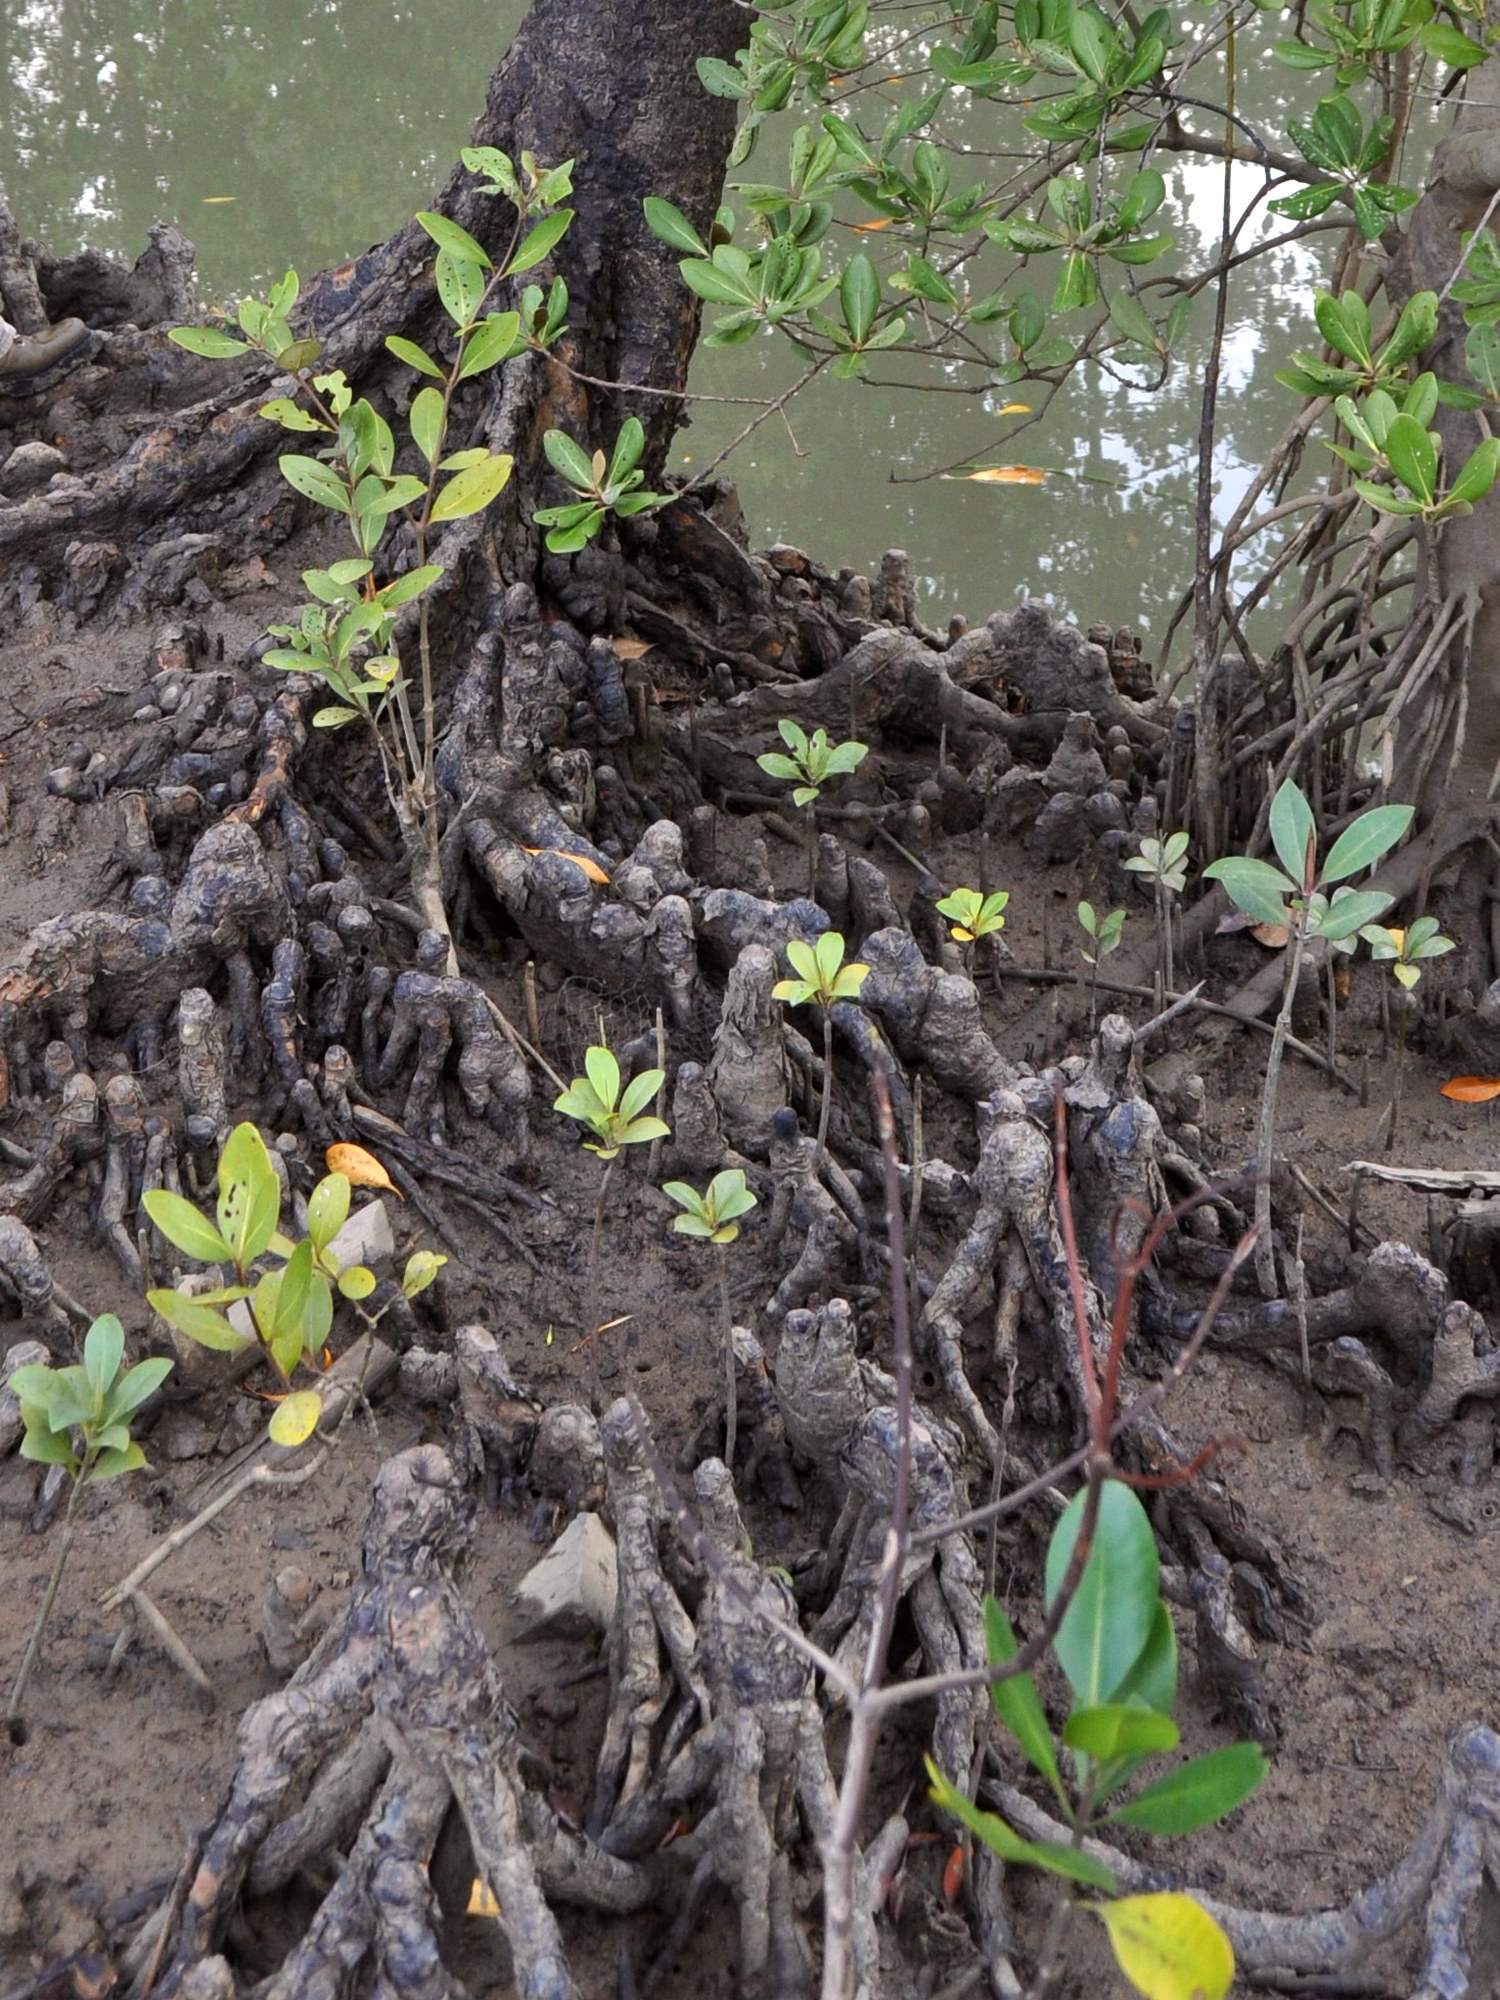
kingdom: Plantae
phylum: Tracheophyta
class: Magnoliopsida
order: Malpighiales
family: Rhizophoraceae
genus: Bruguiera
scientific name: Bruguiera parviflora
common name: Smallflower bruguiera
